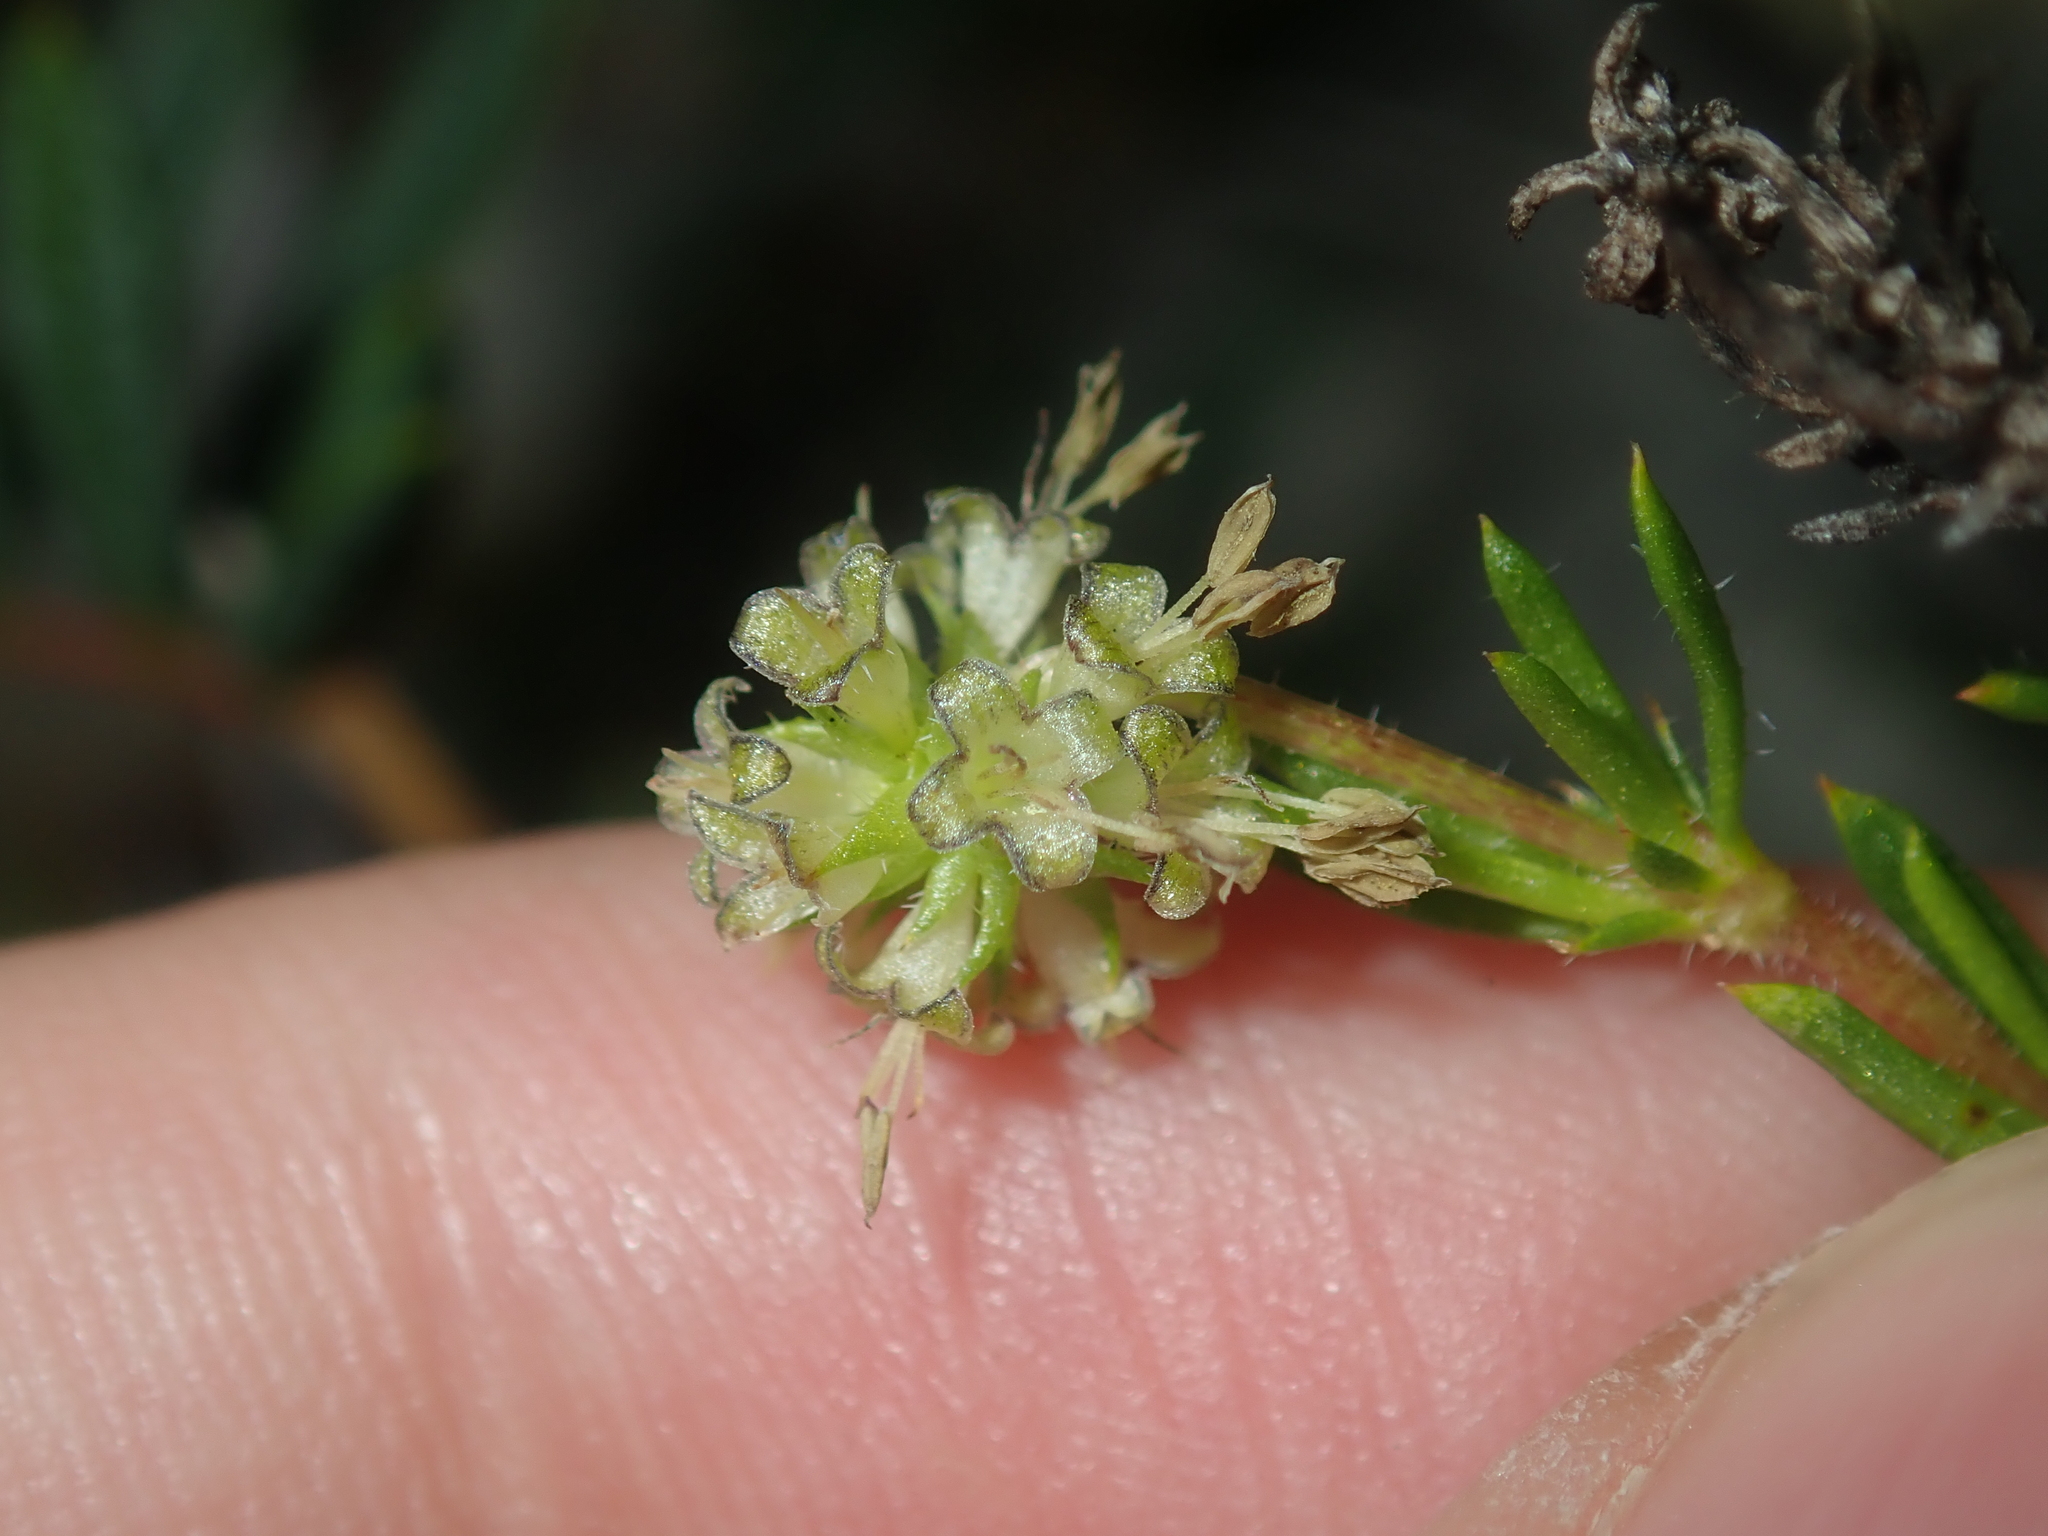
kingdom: Plantae
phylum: Tracheophyta
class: Magnoliopsida
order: Gentianales
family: Rubiaceae
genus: Opercularia
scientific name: Opercularia spermacocea
